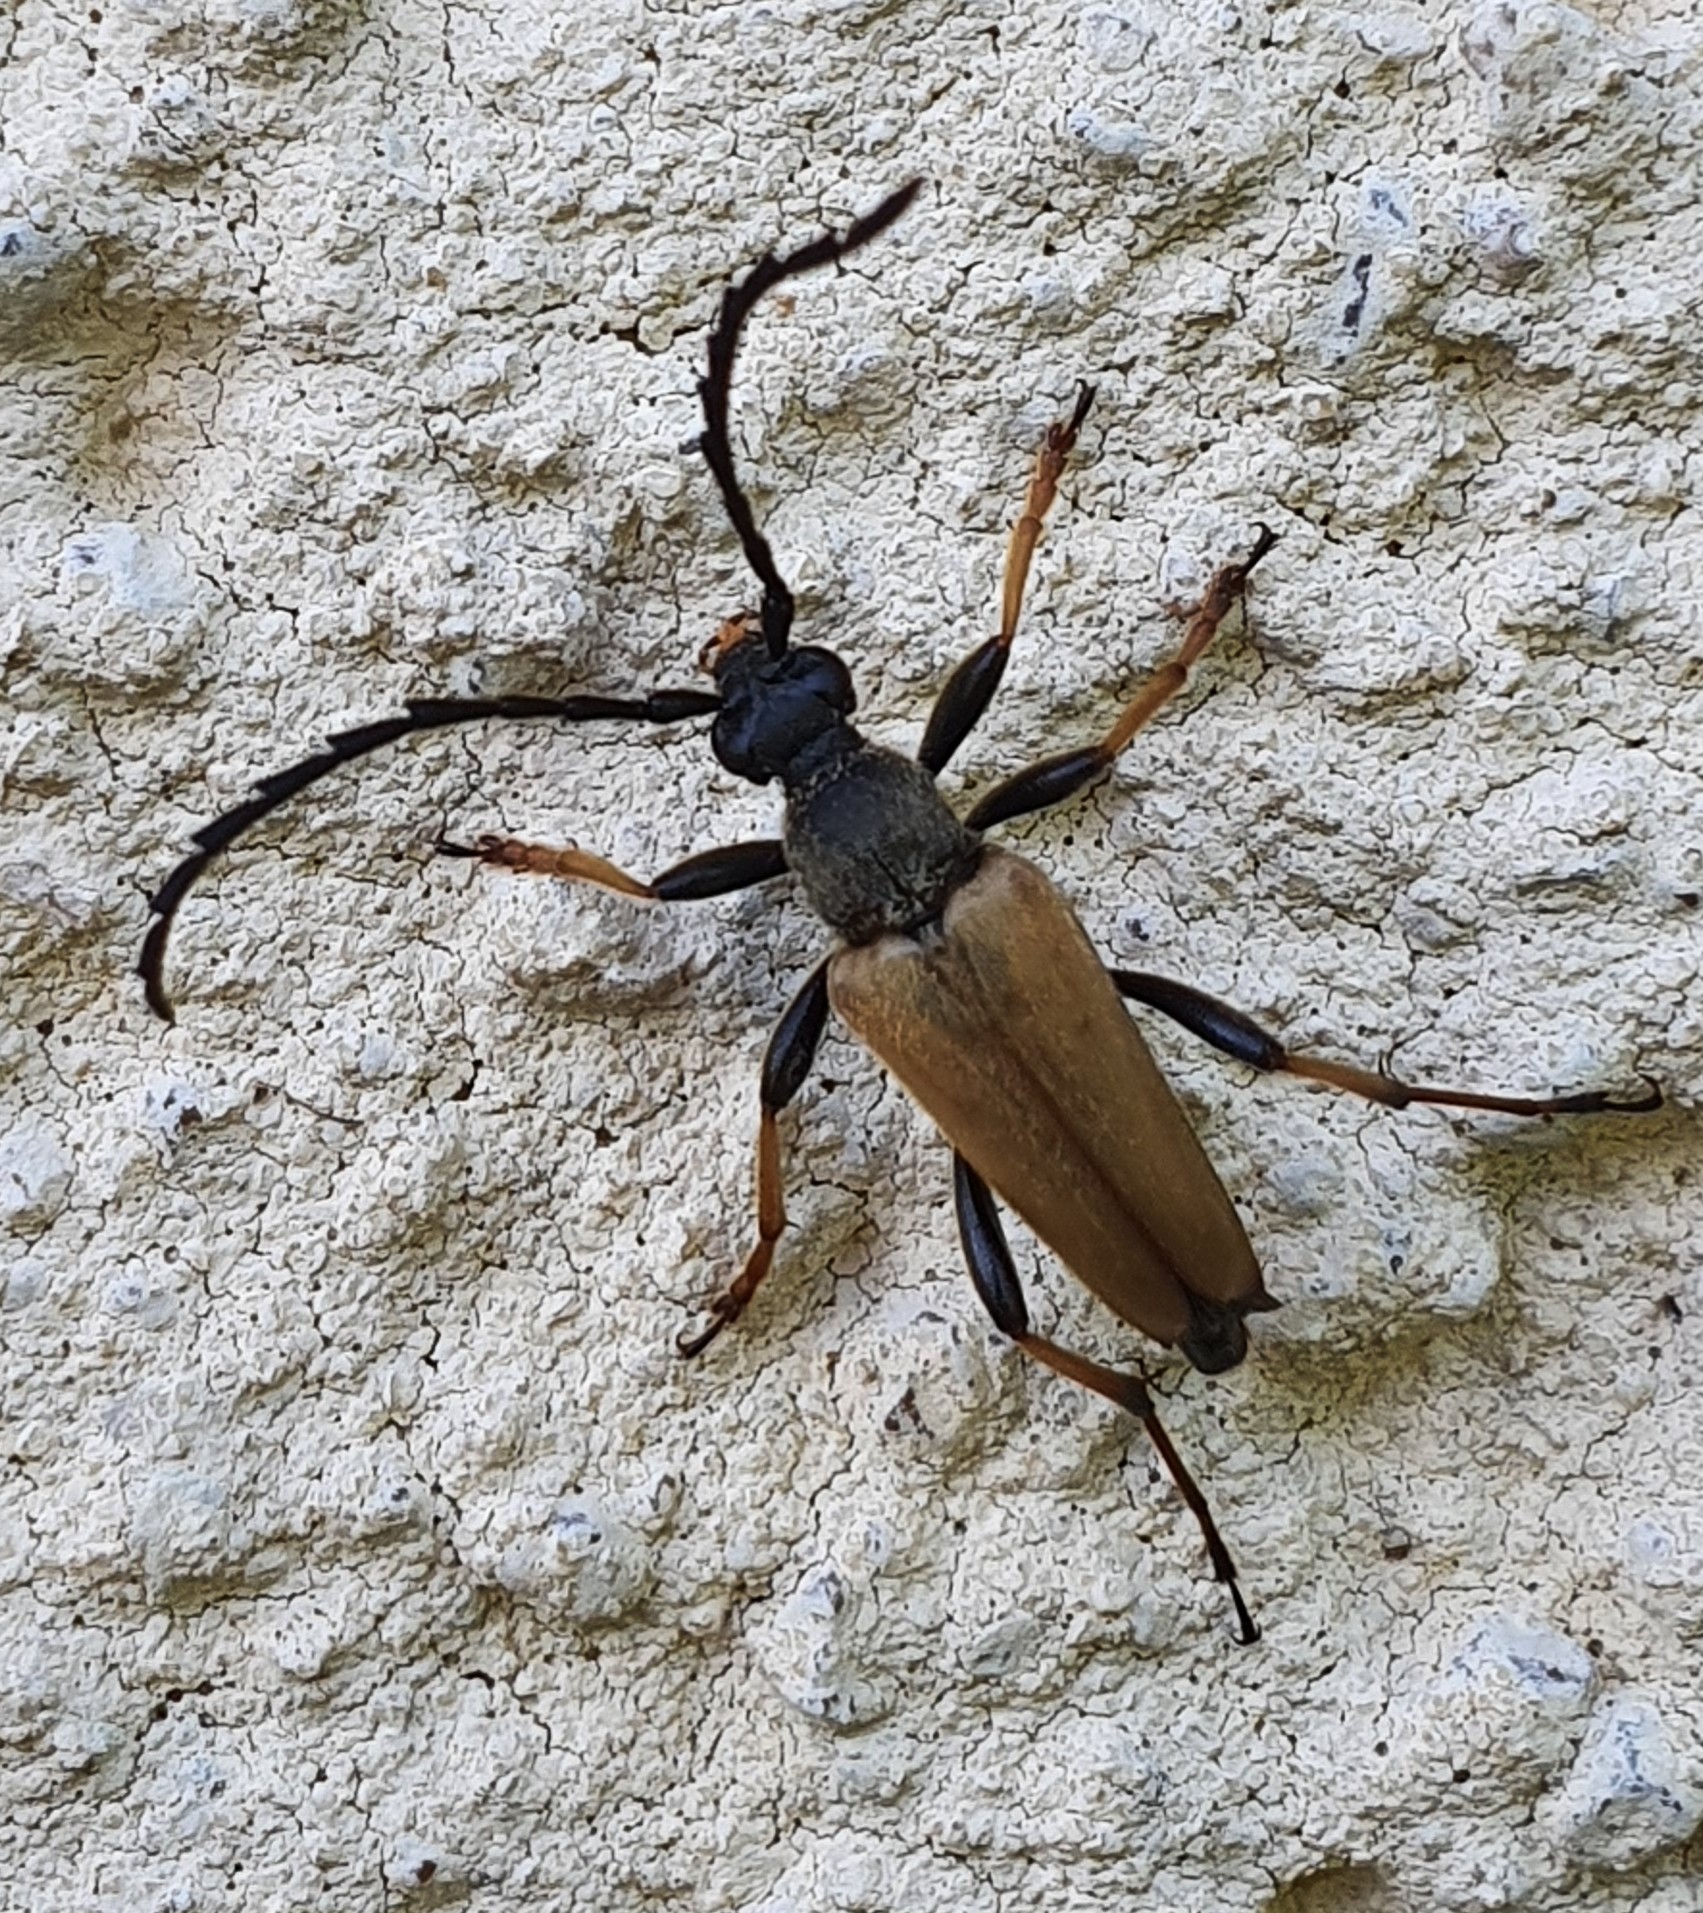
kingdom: Animalia
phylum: Arthropoda
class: Insecta
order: Coleoptera
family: Cerambycidae
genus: Stictoleptura
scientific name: Stictoleptura rubra
